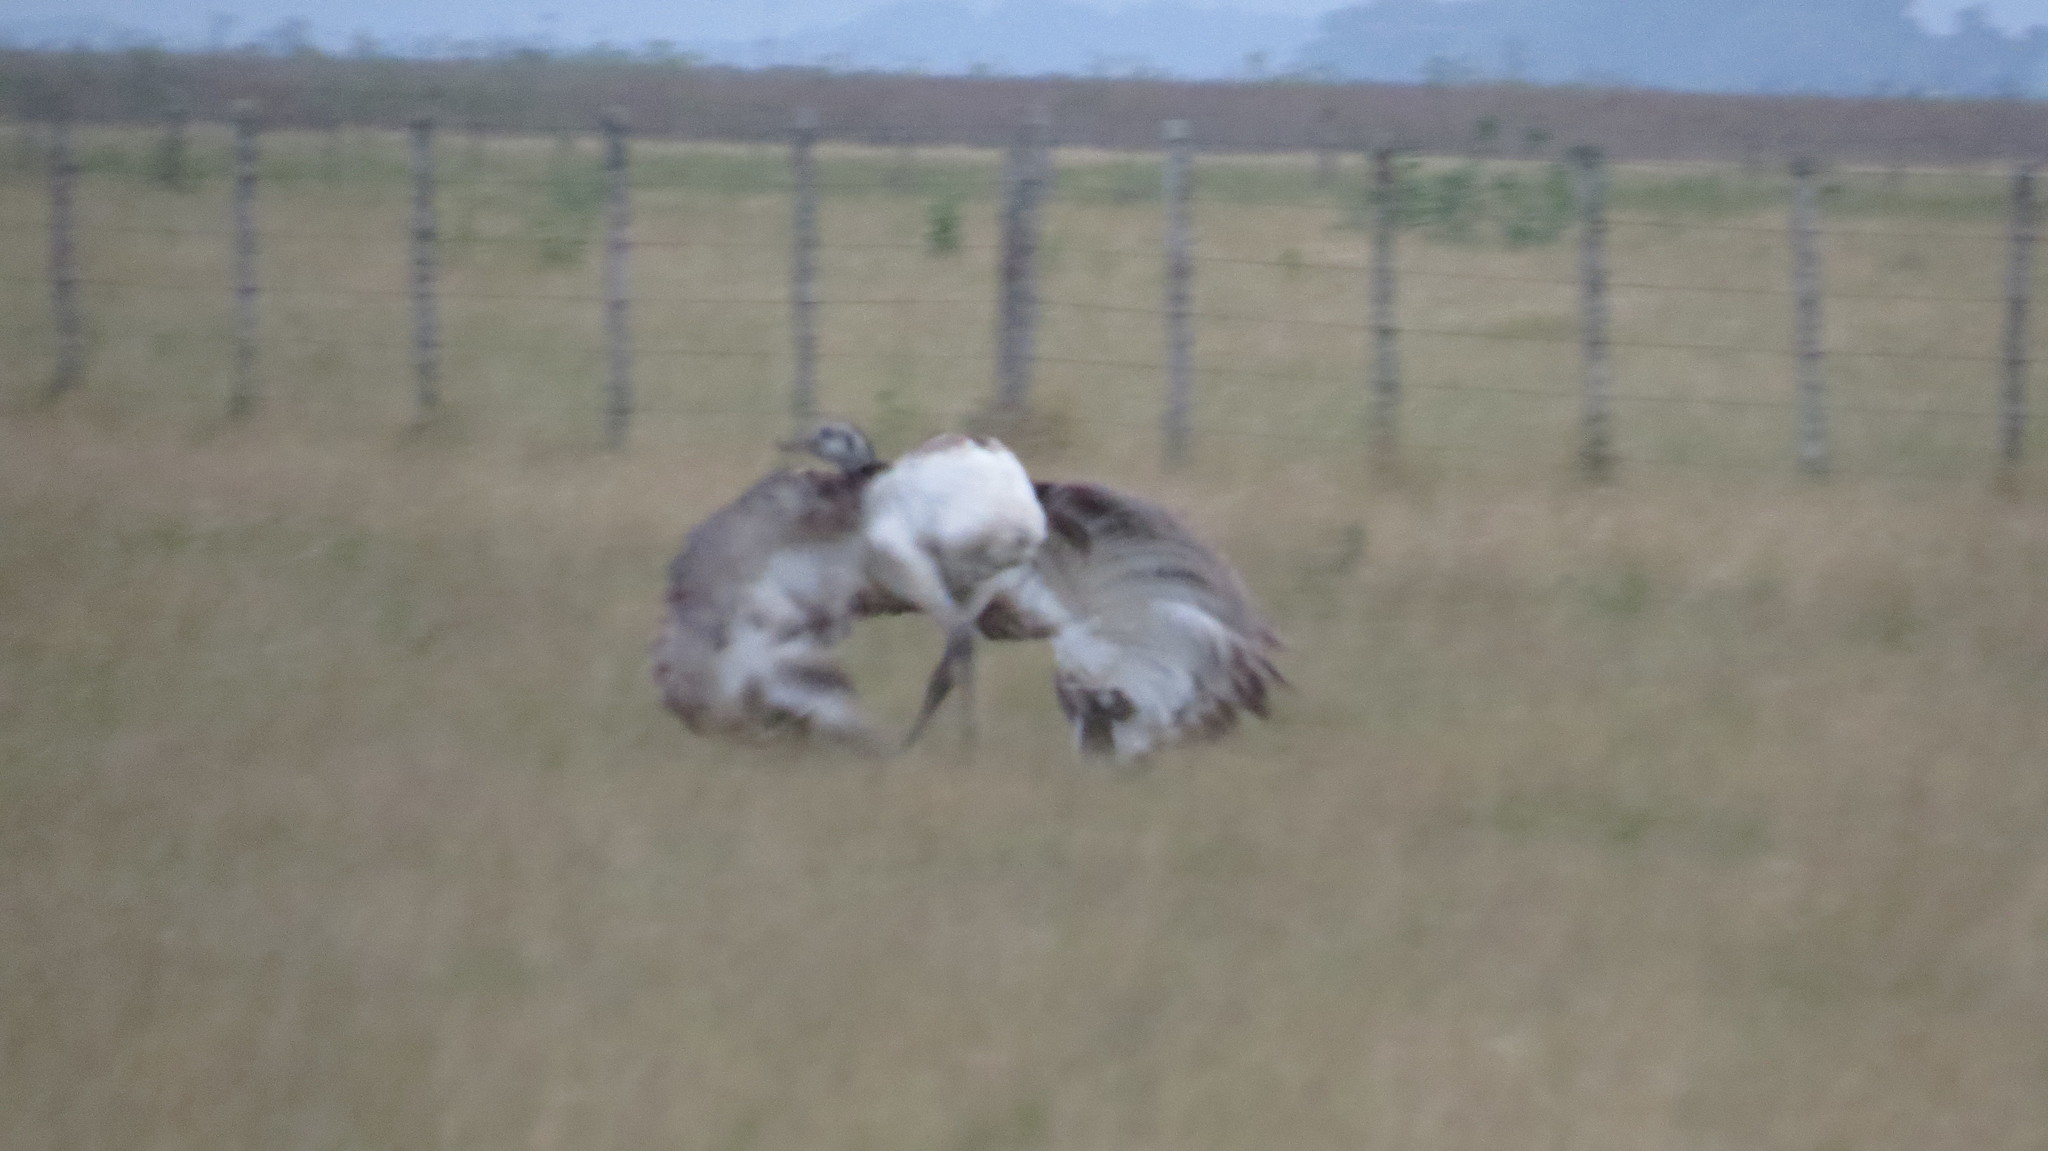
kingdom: Animalia
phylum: Chordata
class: Aves
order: Rheiformes
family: Rheidae
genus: Rhea
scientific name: Rhea americana
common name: Greater rhea
